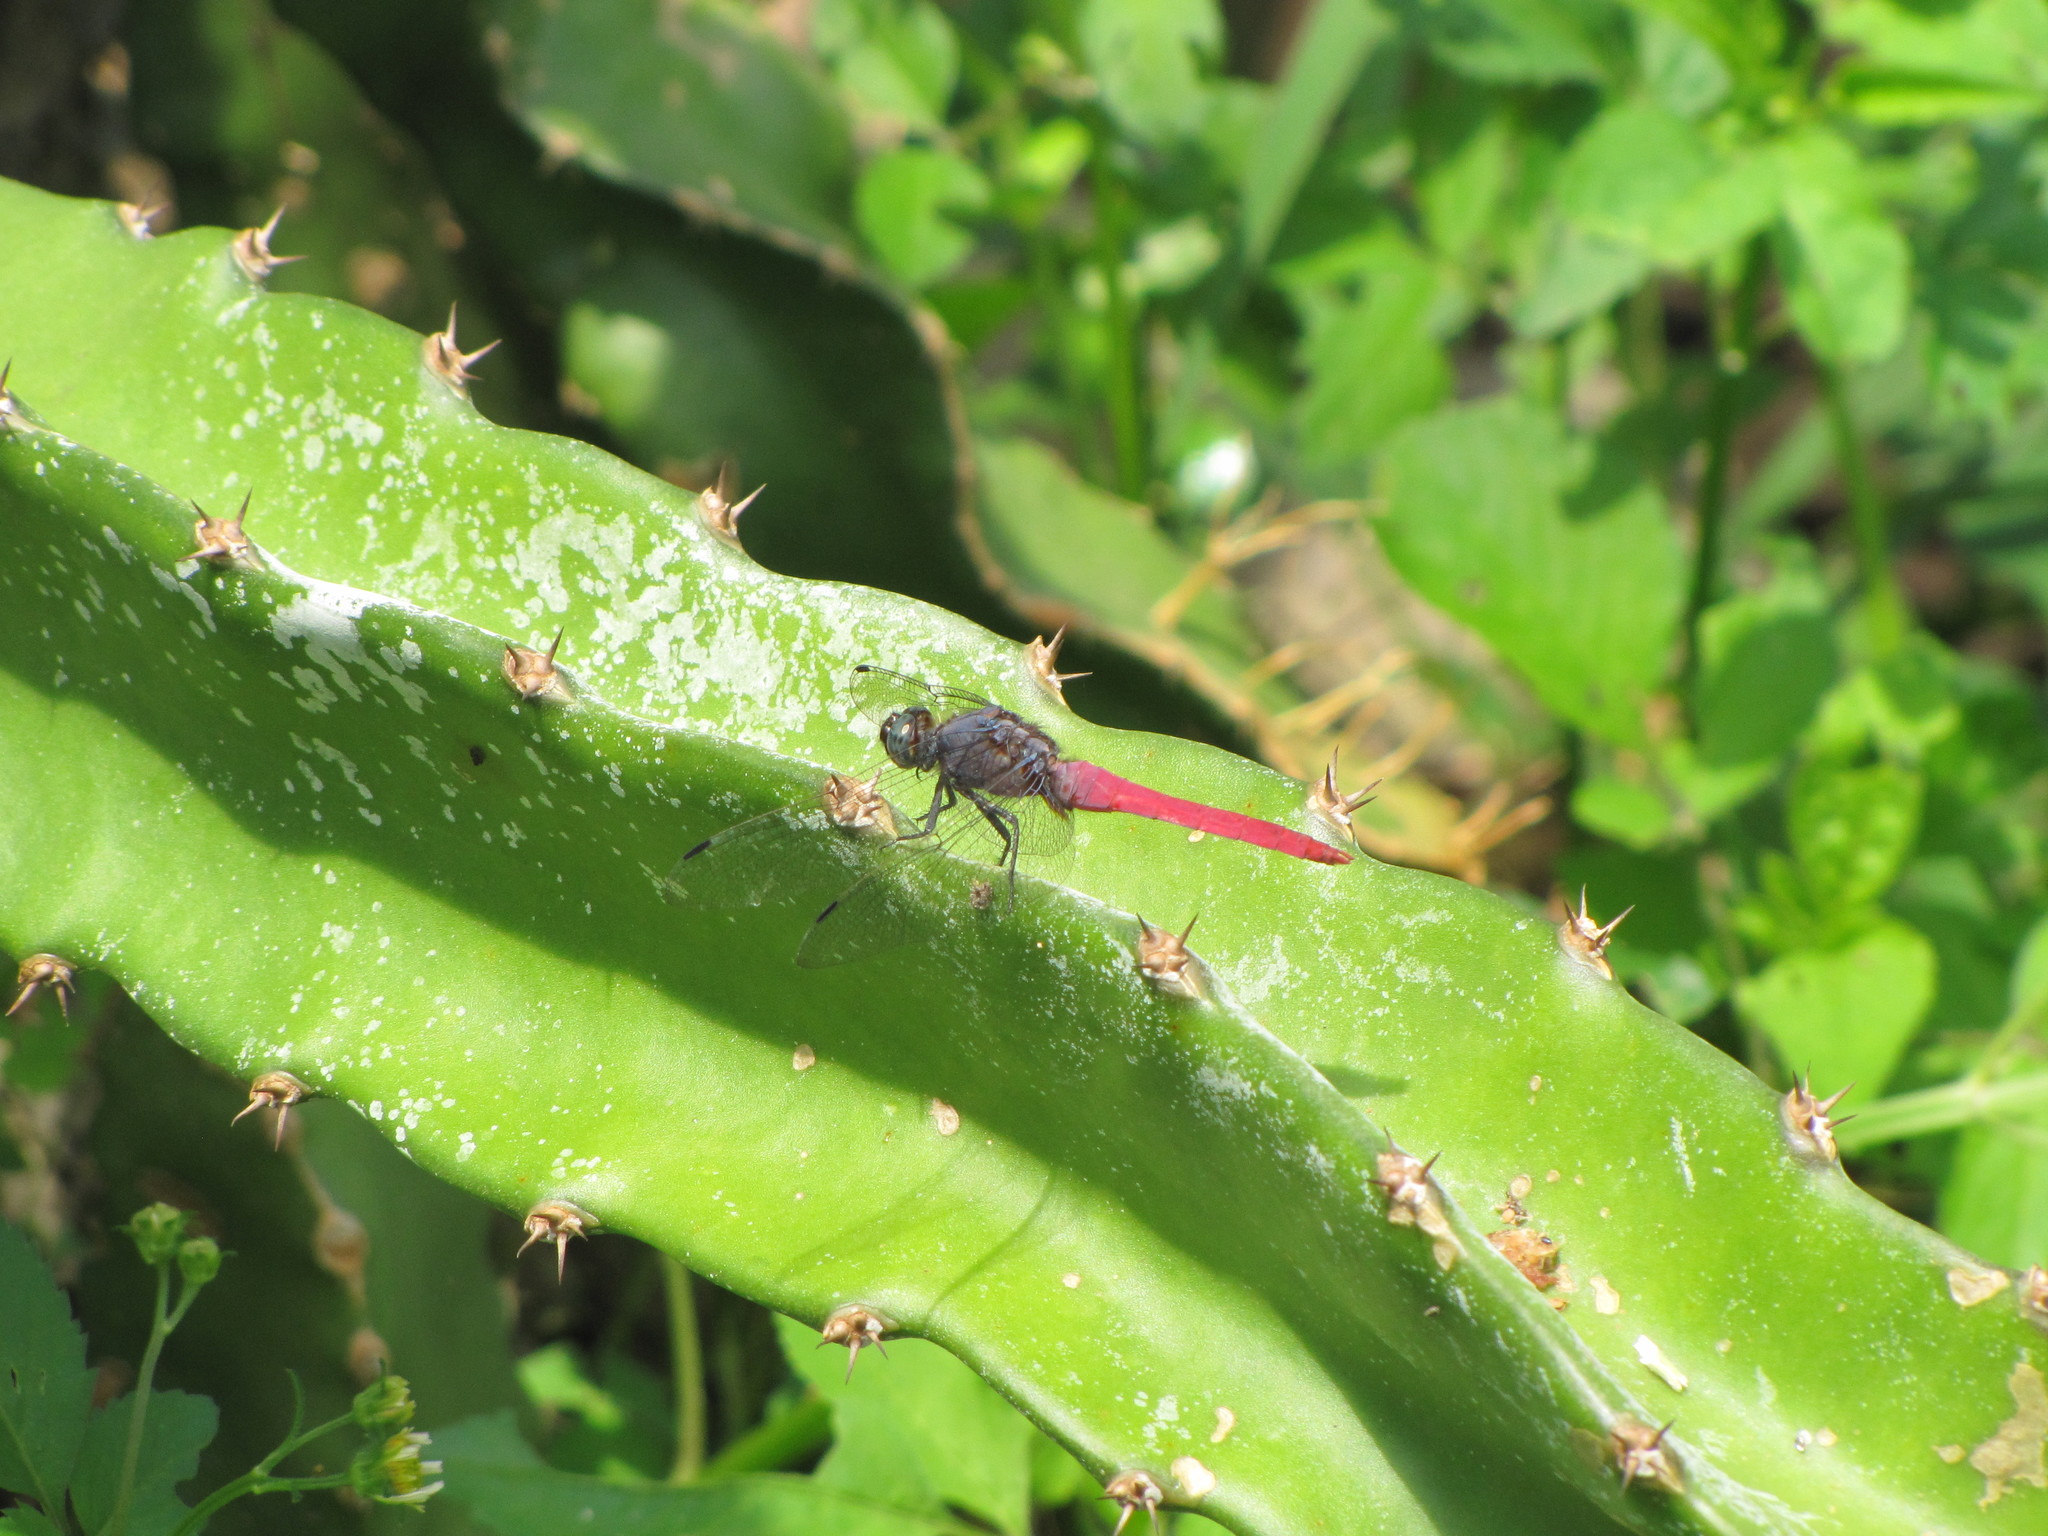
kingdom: Animalia
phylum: Arthropoda
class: Insecta
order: Odonata
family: Libellulidae
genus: Orthetrum
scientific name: Orthetrum pruinosum
